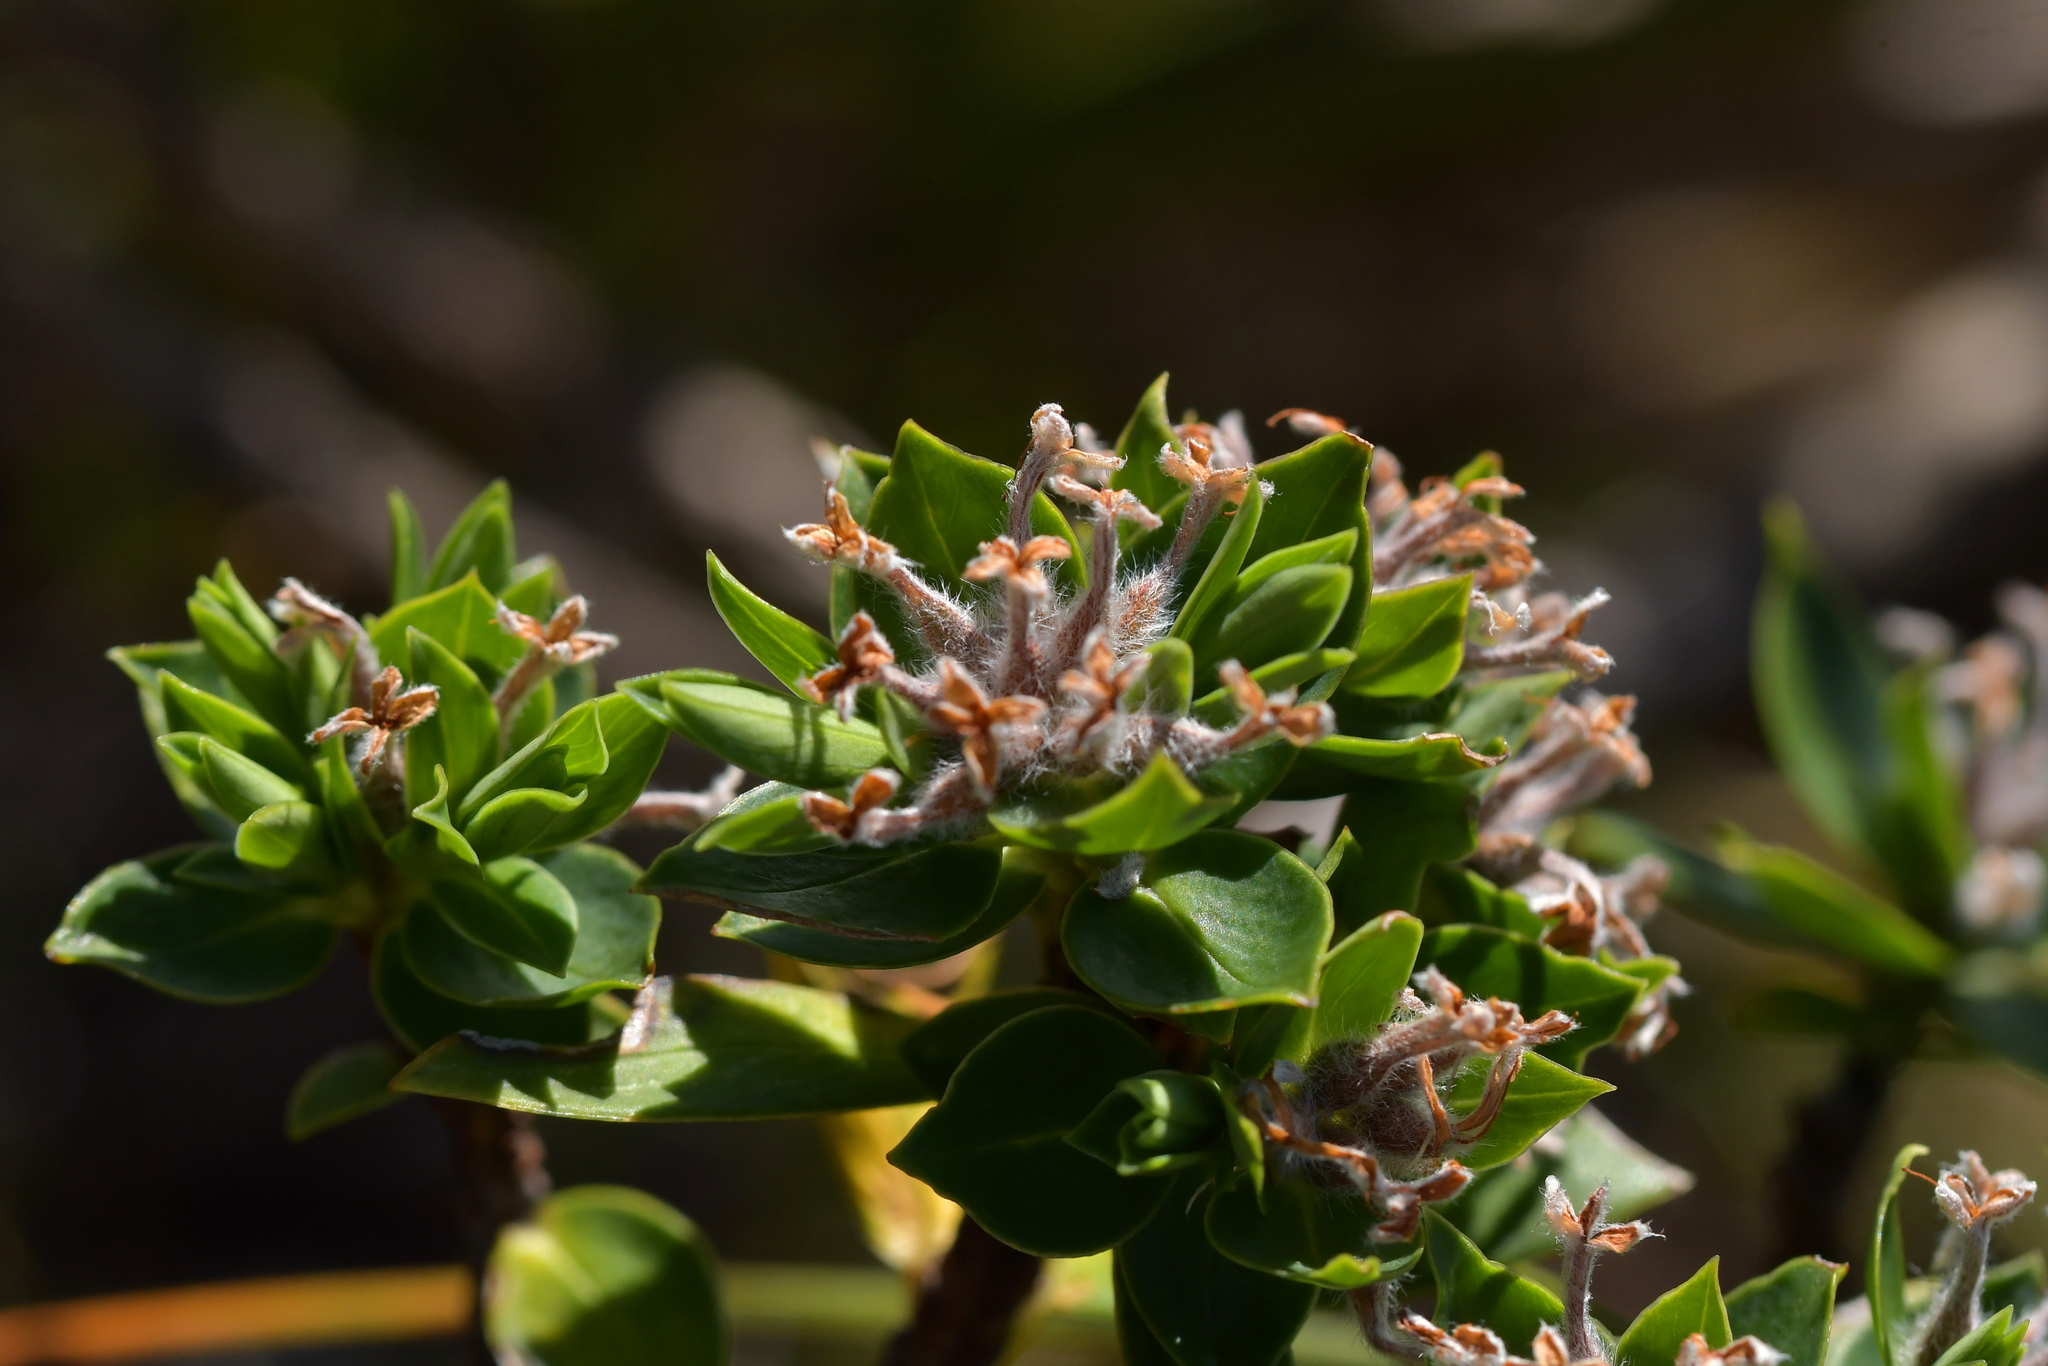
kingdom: Plantae
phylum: Tracheophyta
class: Magnoliopsida
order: Malvales
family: Thymelaeaceae
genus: Pimelea
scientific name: Pimelea gnidia
